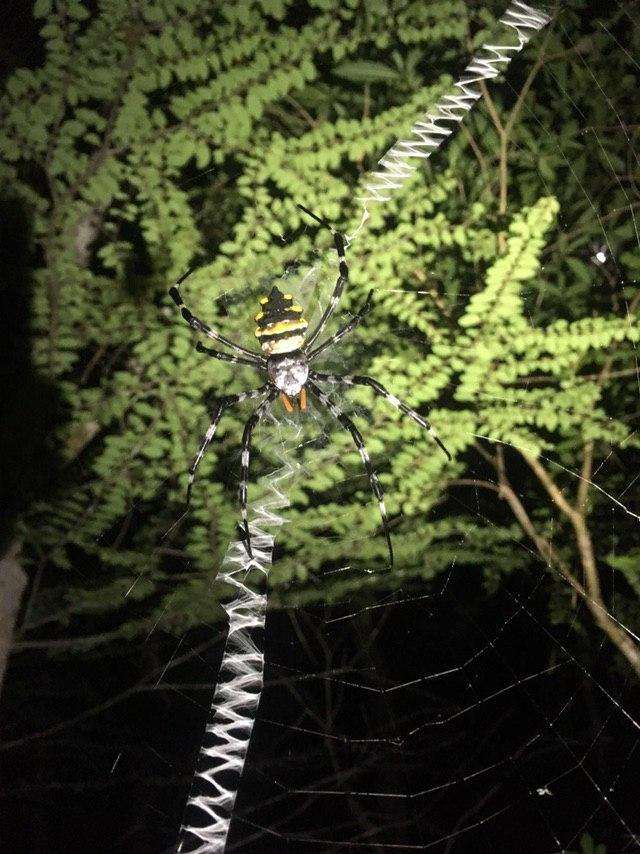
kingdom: Animalia
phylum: Arthropoda
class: Arachnida
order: Araneae
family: Araneidae
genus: Argiope
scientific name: Argiope coquereli
